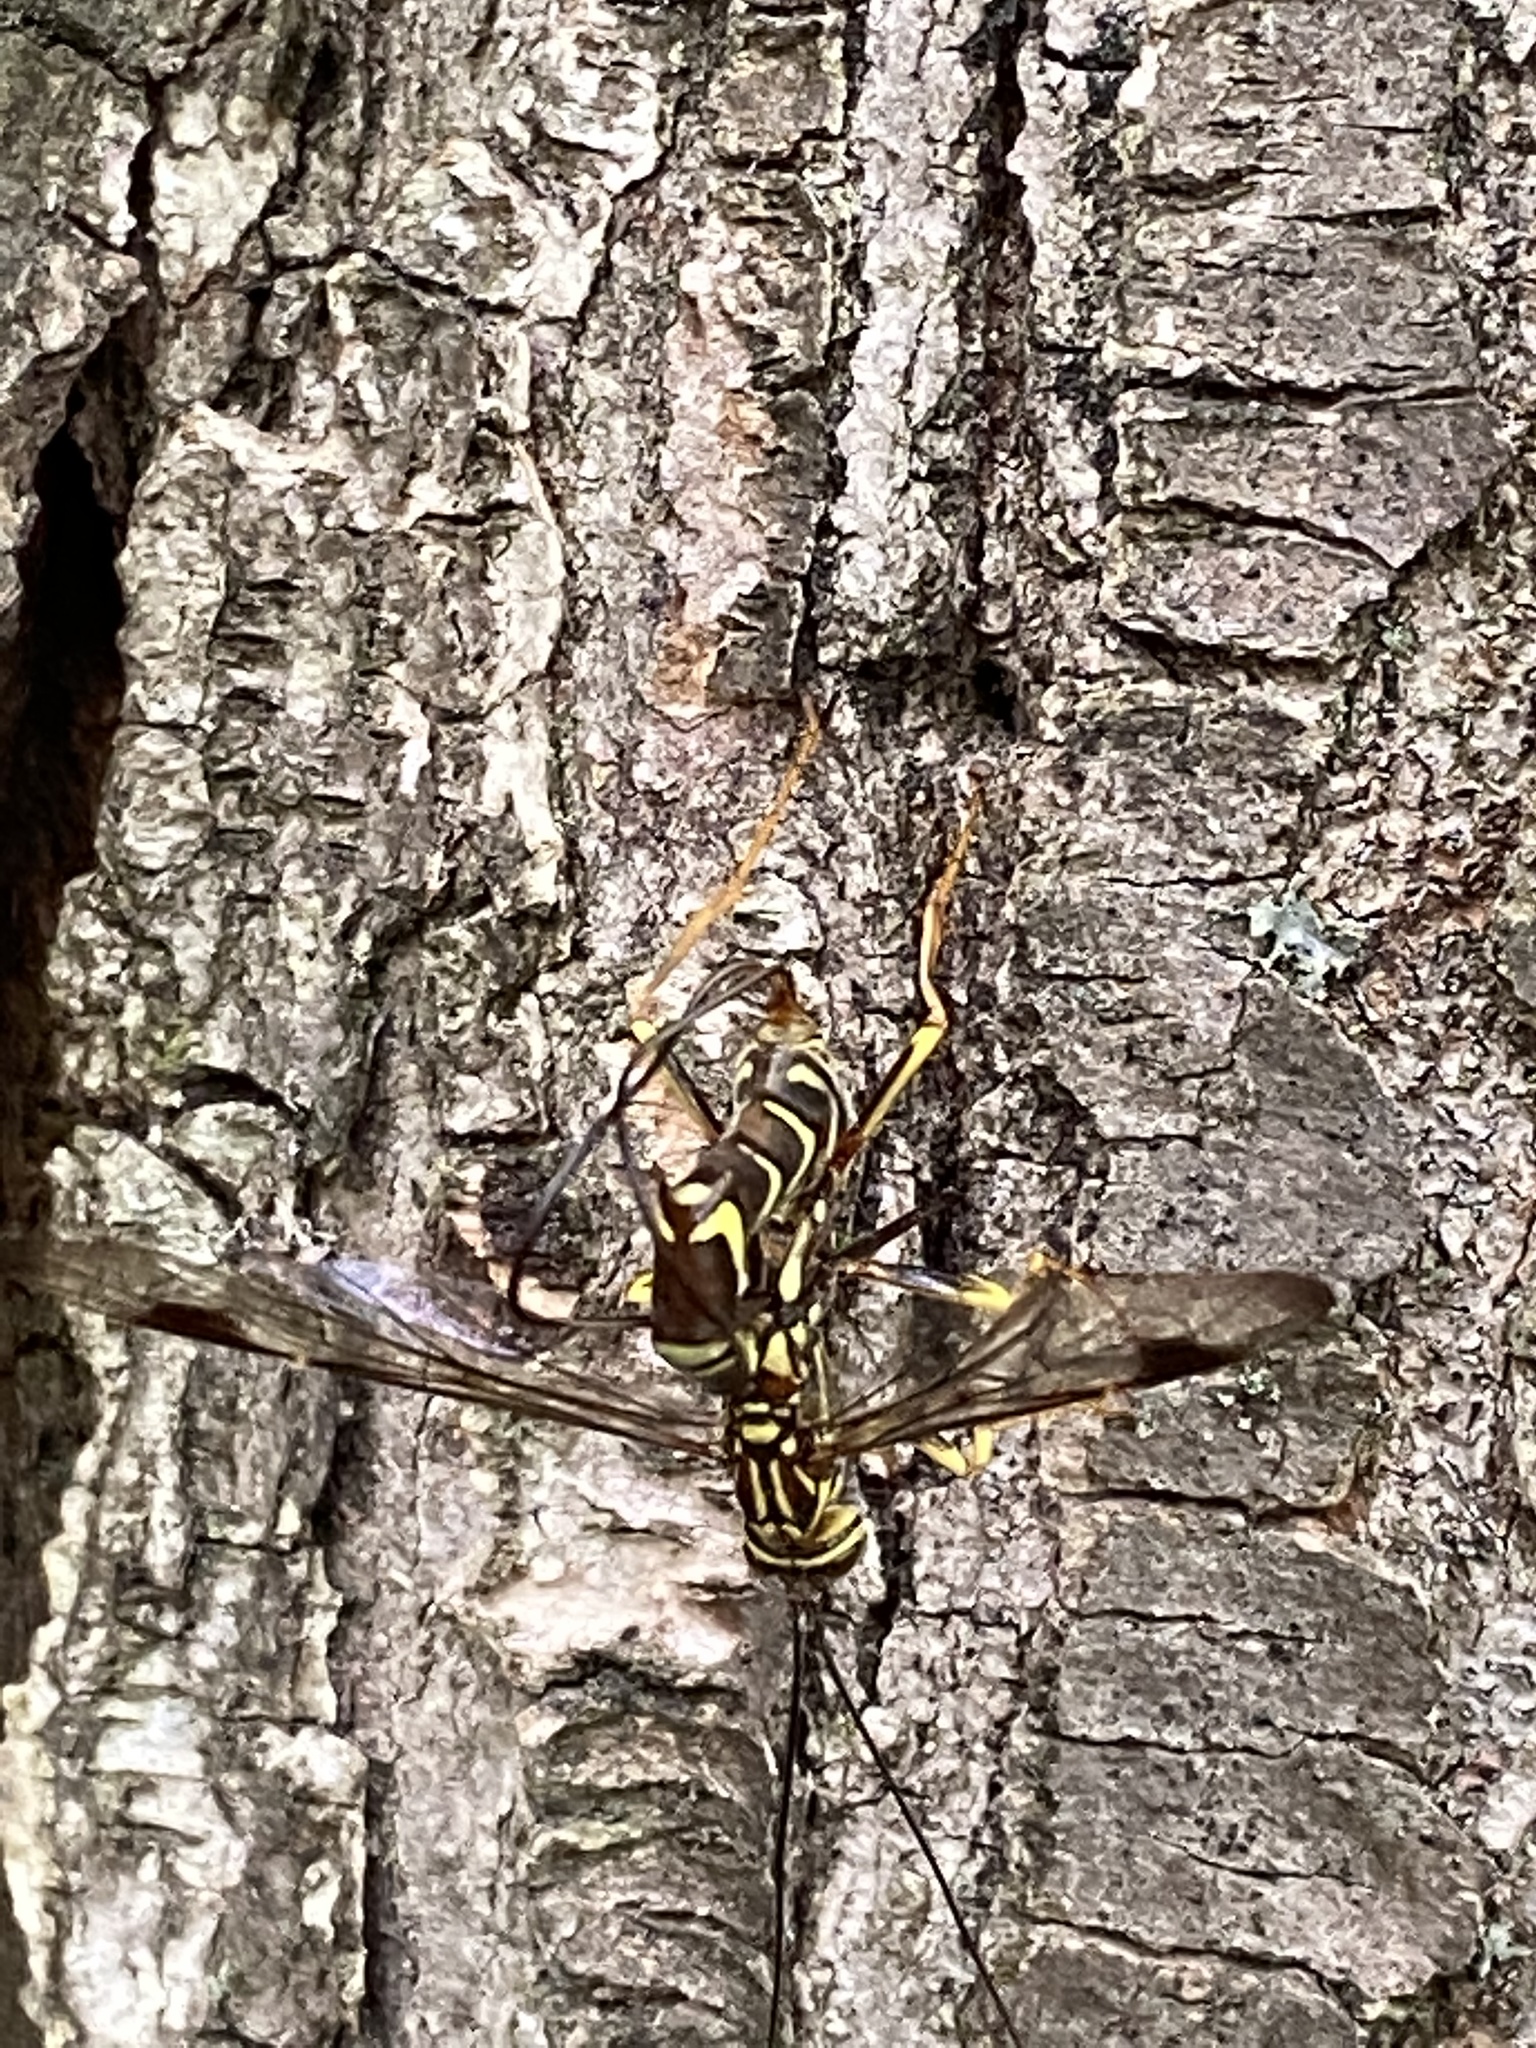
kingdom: Animalia
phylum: Arthropoda
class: Insecta
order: Hymenoptera
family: Ichneumonidae
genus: Megarhyssa
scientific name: Megarhyssa macrura
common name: Long-tailed giant ichneumonid wasp
